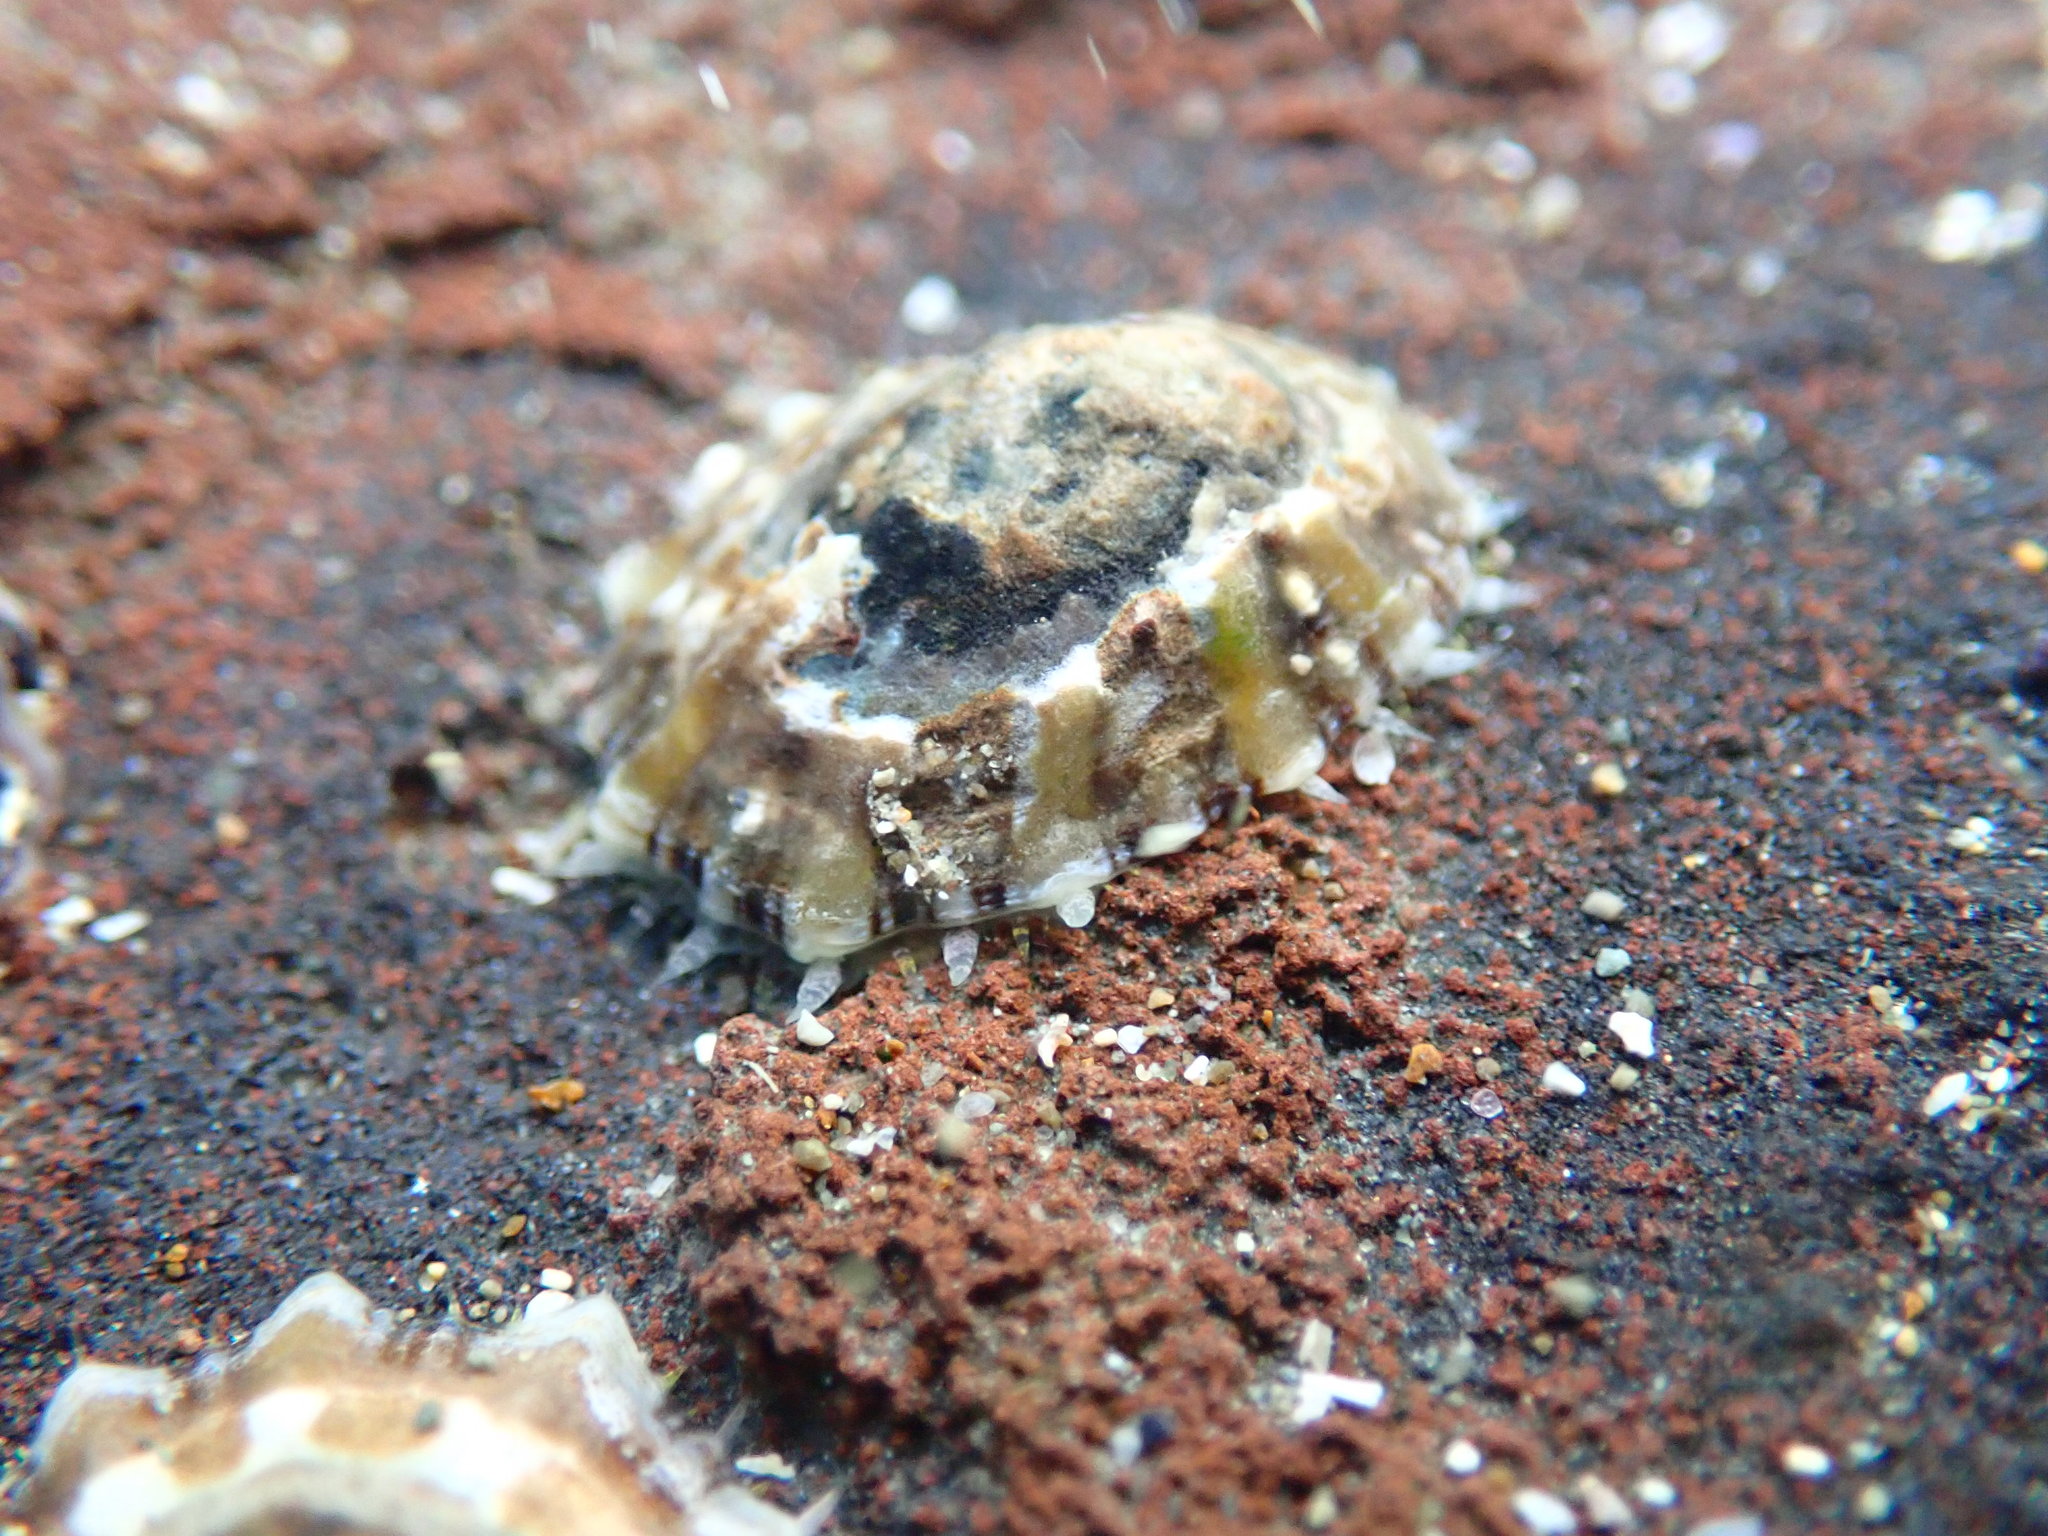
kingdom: Animalia
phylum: Mollusca
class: Gastropoda
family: Nacellidae
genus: Cellana
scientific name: Cellana ornata
